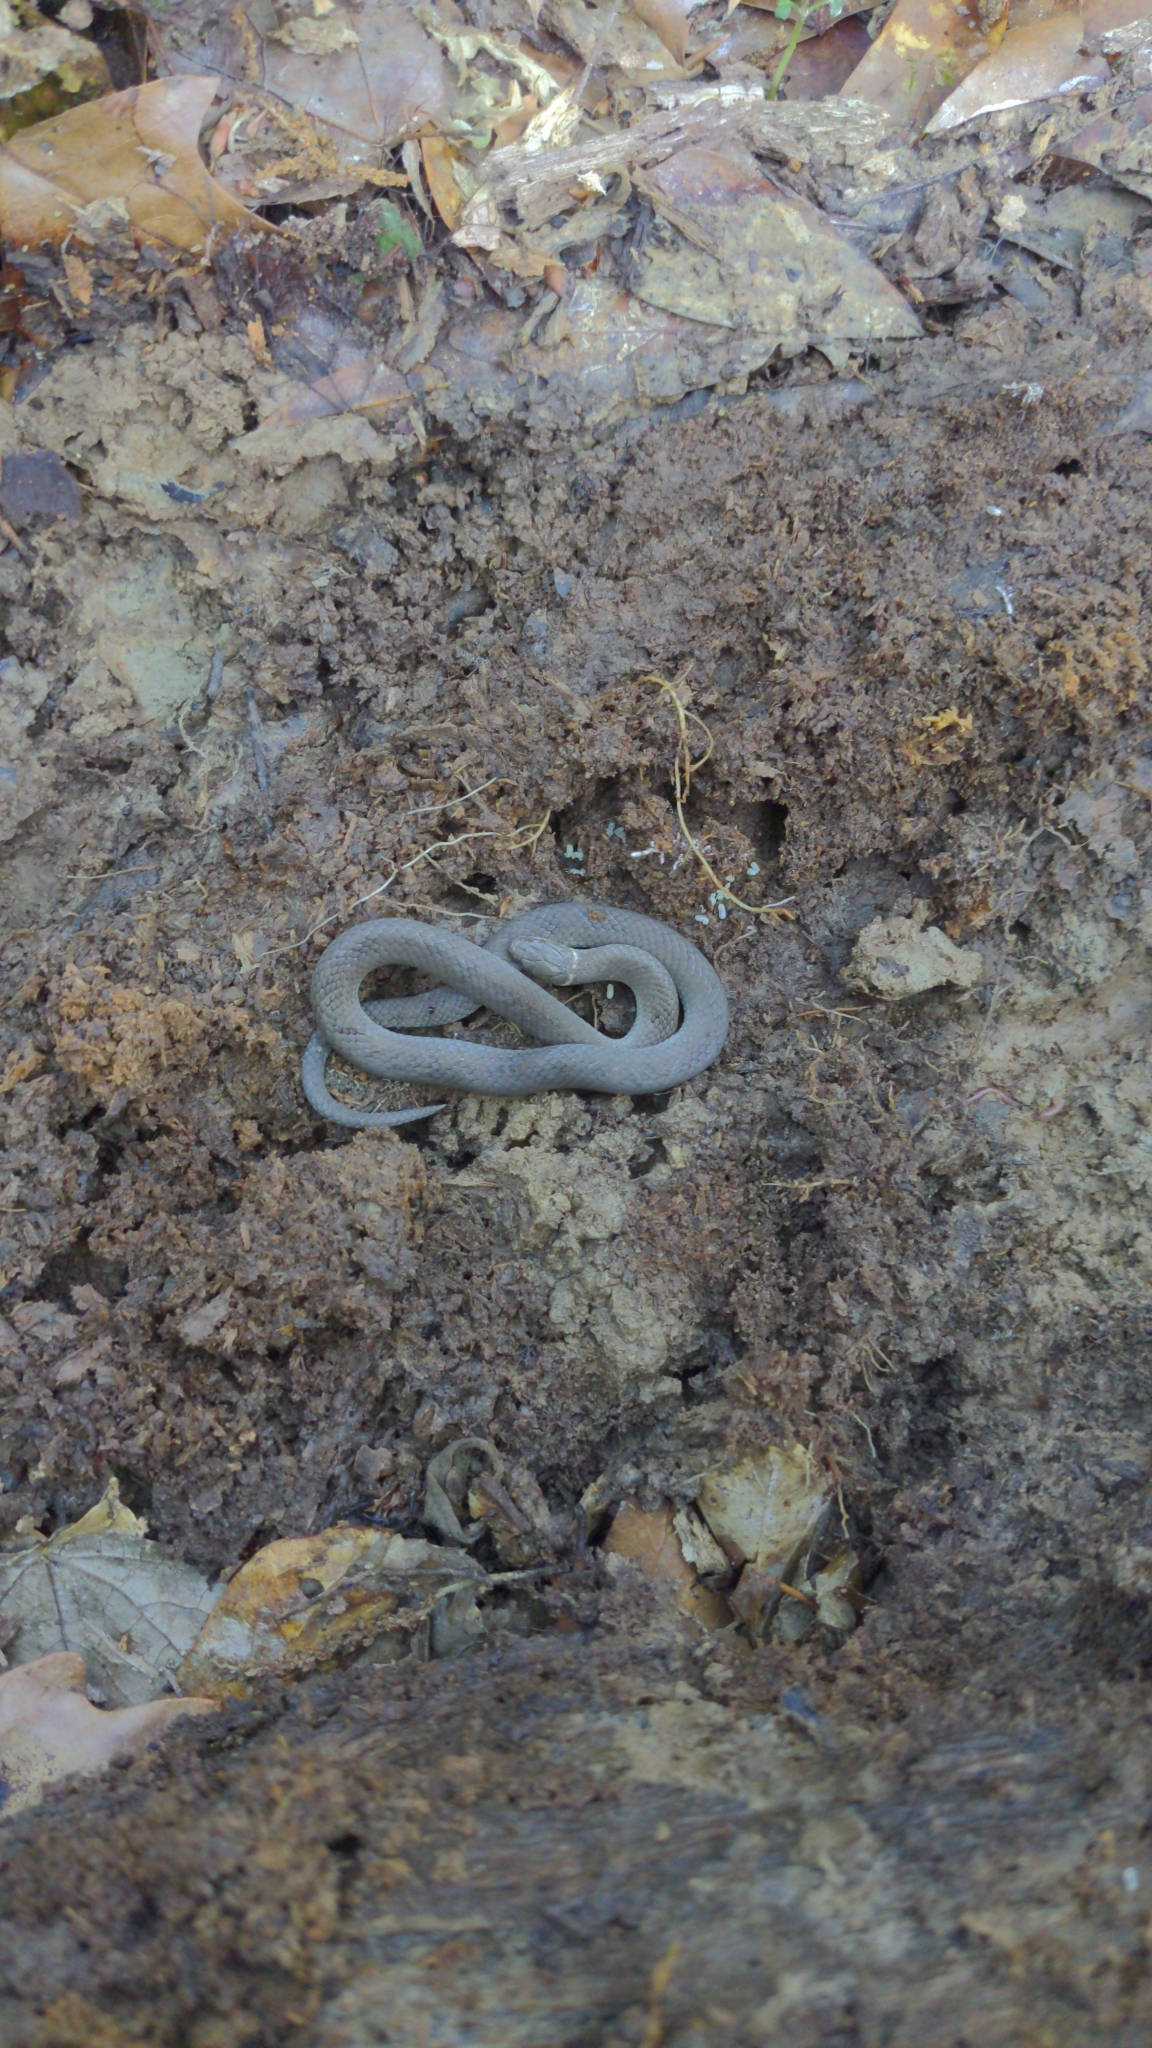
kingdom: Animalia
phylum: Chordata
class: Squamata
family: Colubridae
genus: Diadophis
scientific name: Diadophis punctatus
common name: Ringneck snake
